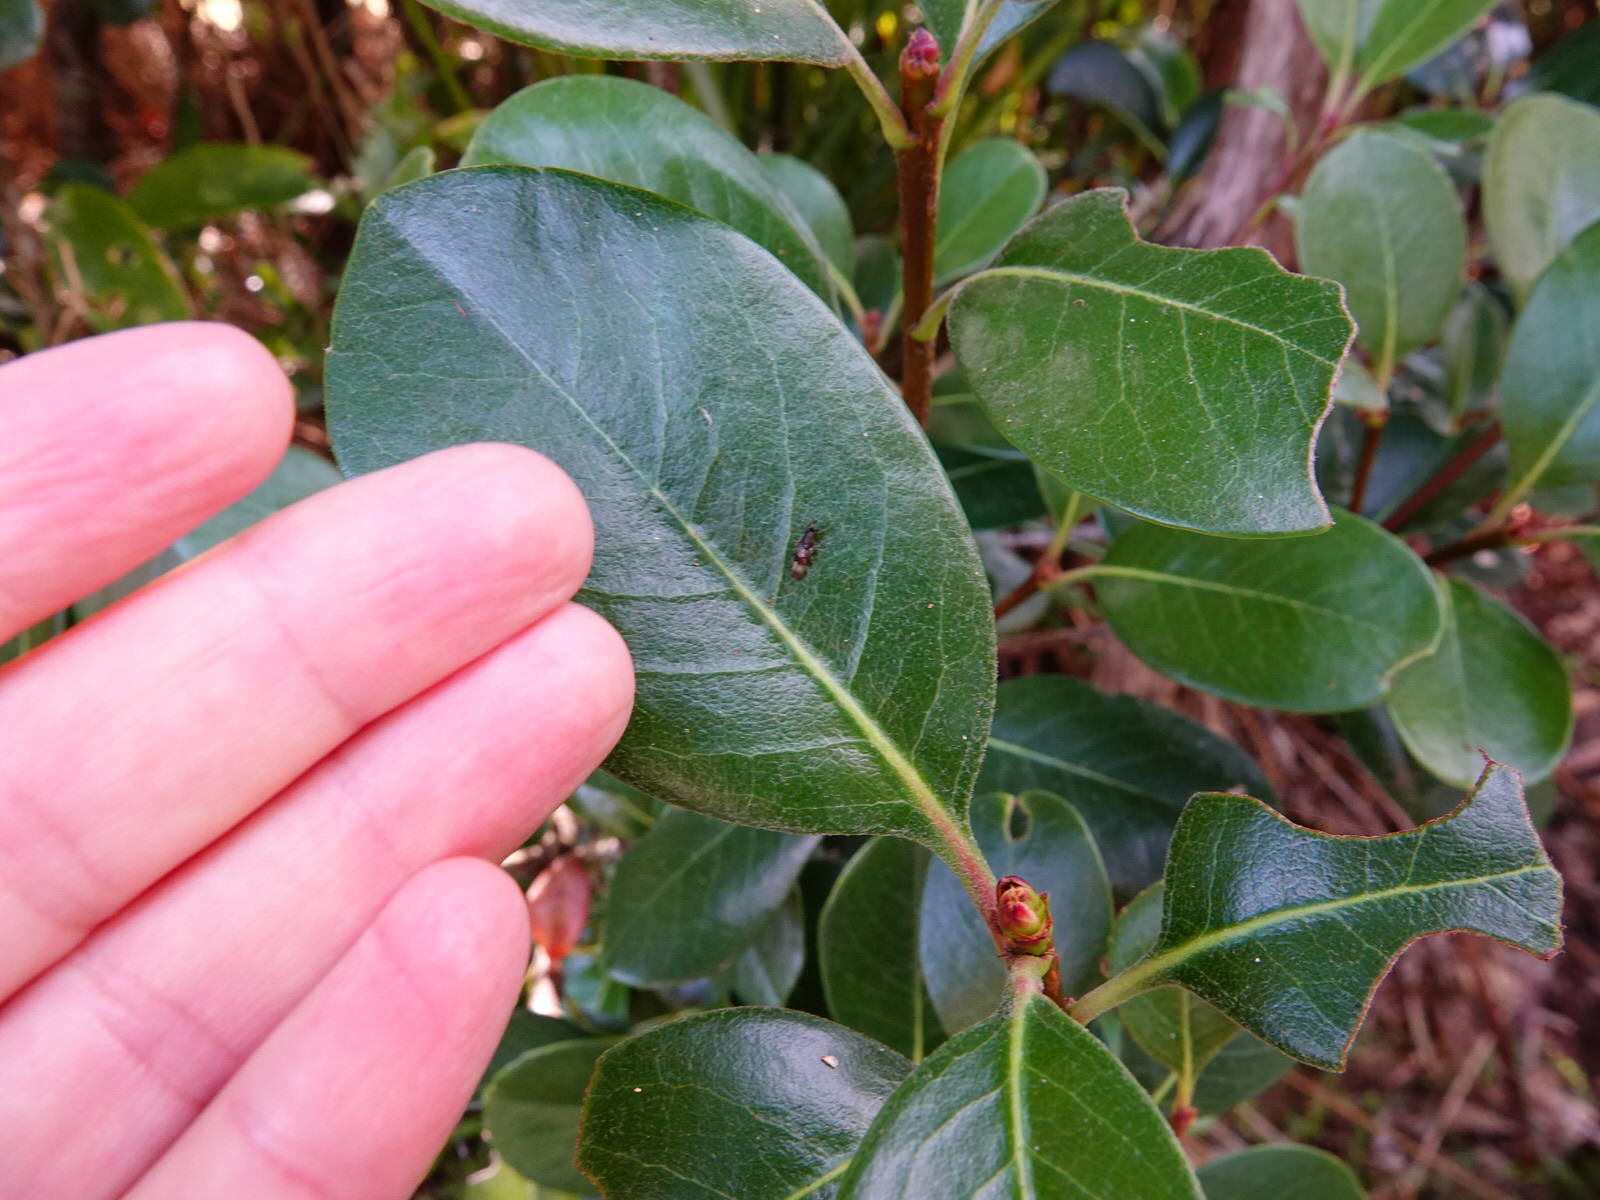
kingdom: Animalia
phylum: Arthropoda
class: Insecta
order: Diptera
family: Stratiomyidae
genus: Dysbiota
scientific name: Dysbiota peregrina
